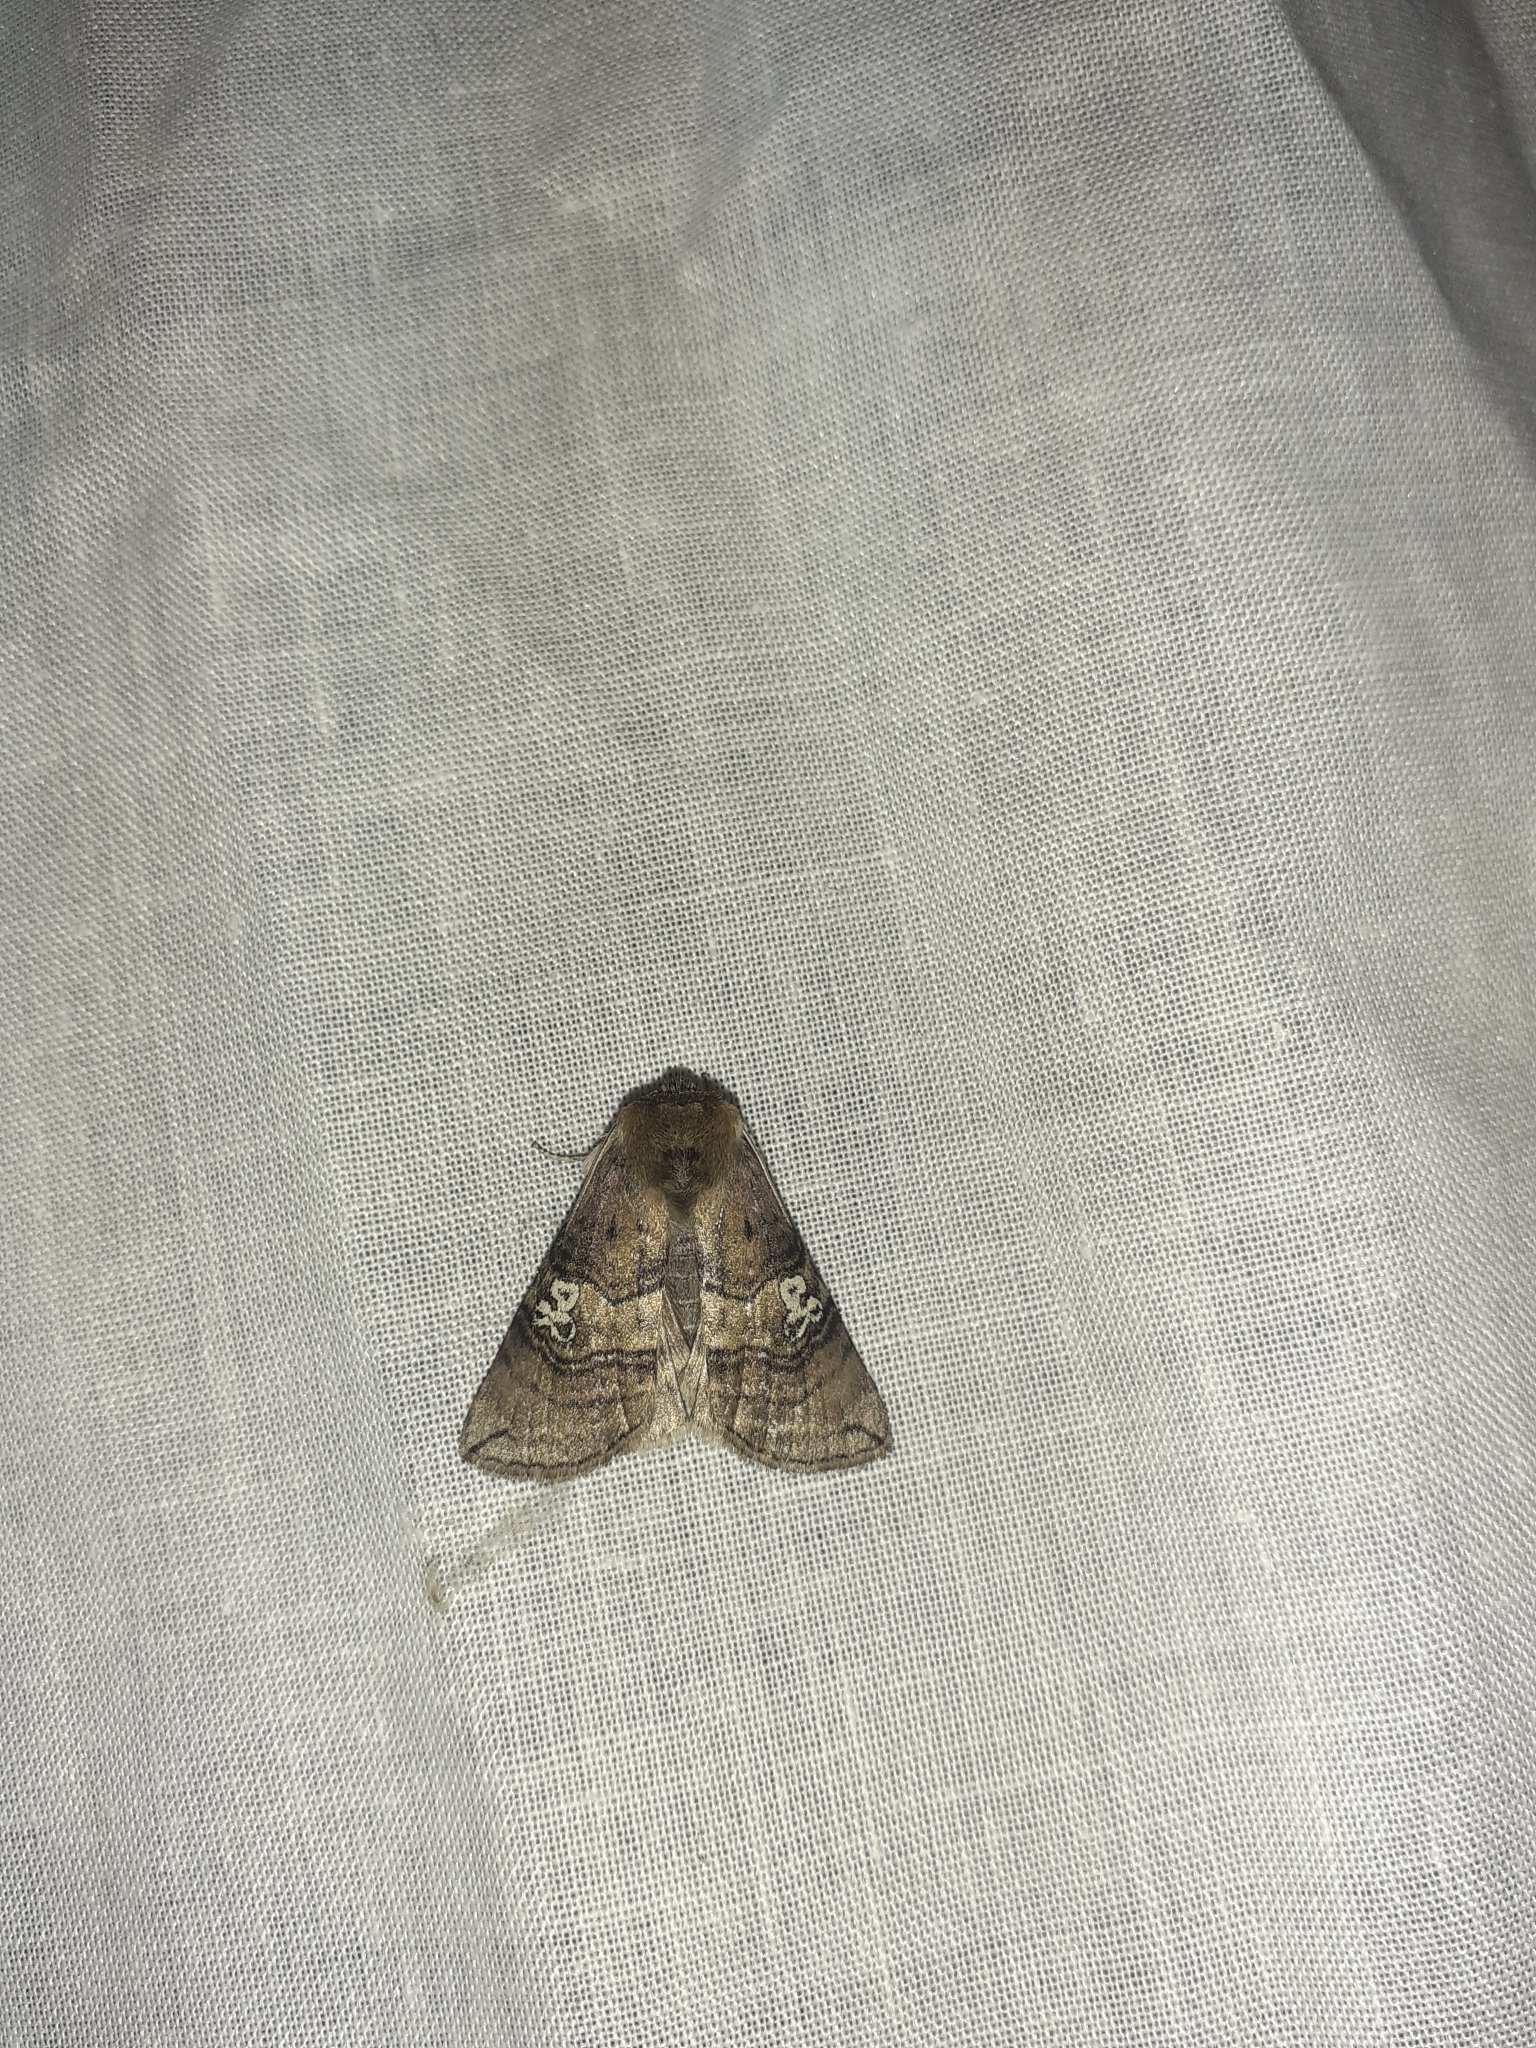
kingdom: Animalia
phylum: Arthropoda
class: Insecta
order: Lepidoptera
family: Drepanidae
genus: Tethea
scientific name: Tethea ocularis
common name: Figure of eighty
